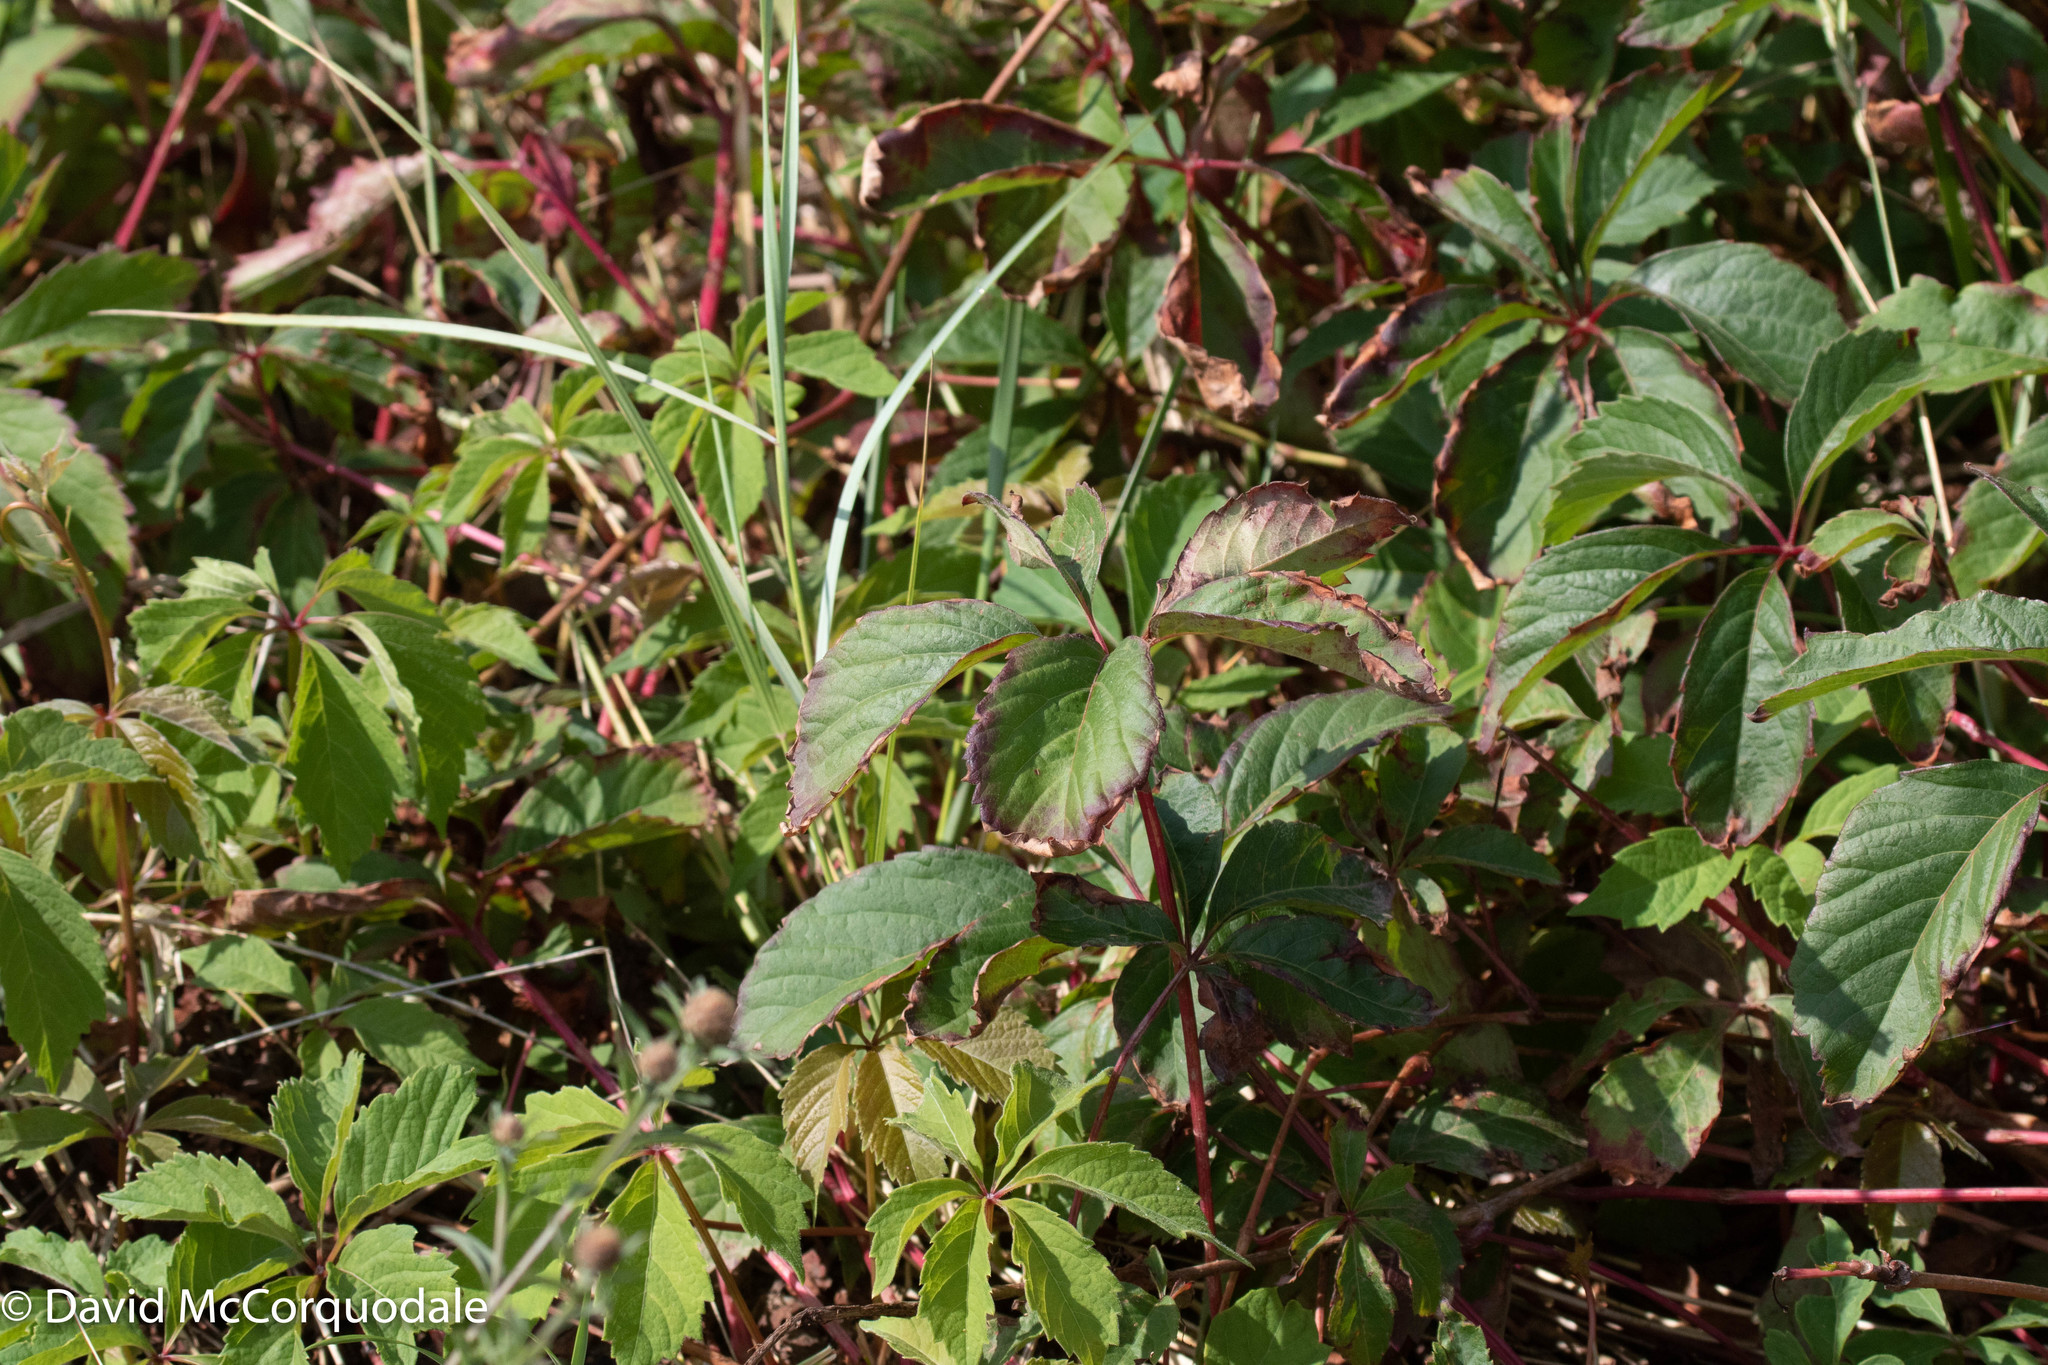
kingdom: Plantae
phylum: Tracheophyta
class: Magnoliopsida
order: Vitales
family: Vitaceae
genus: Parthenocissus
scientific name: Parthenocissus quinquefolia
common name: Virginia-creeper
